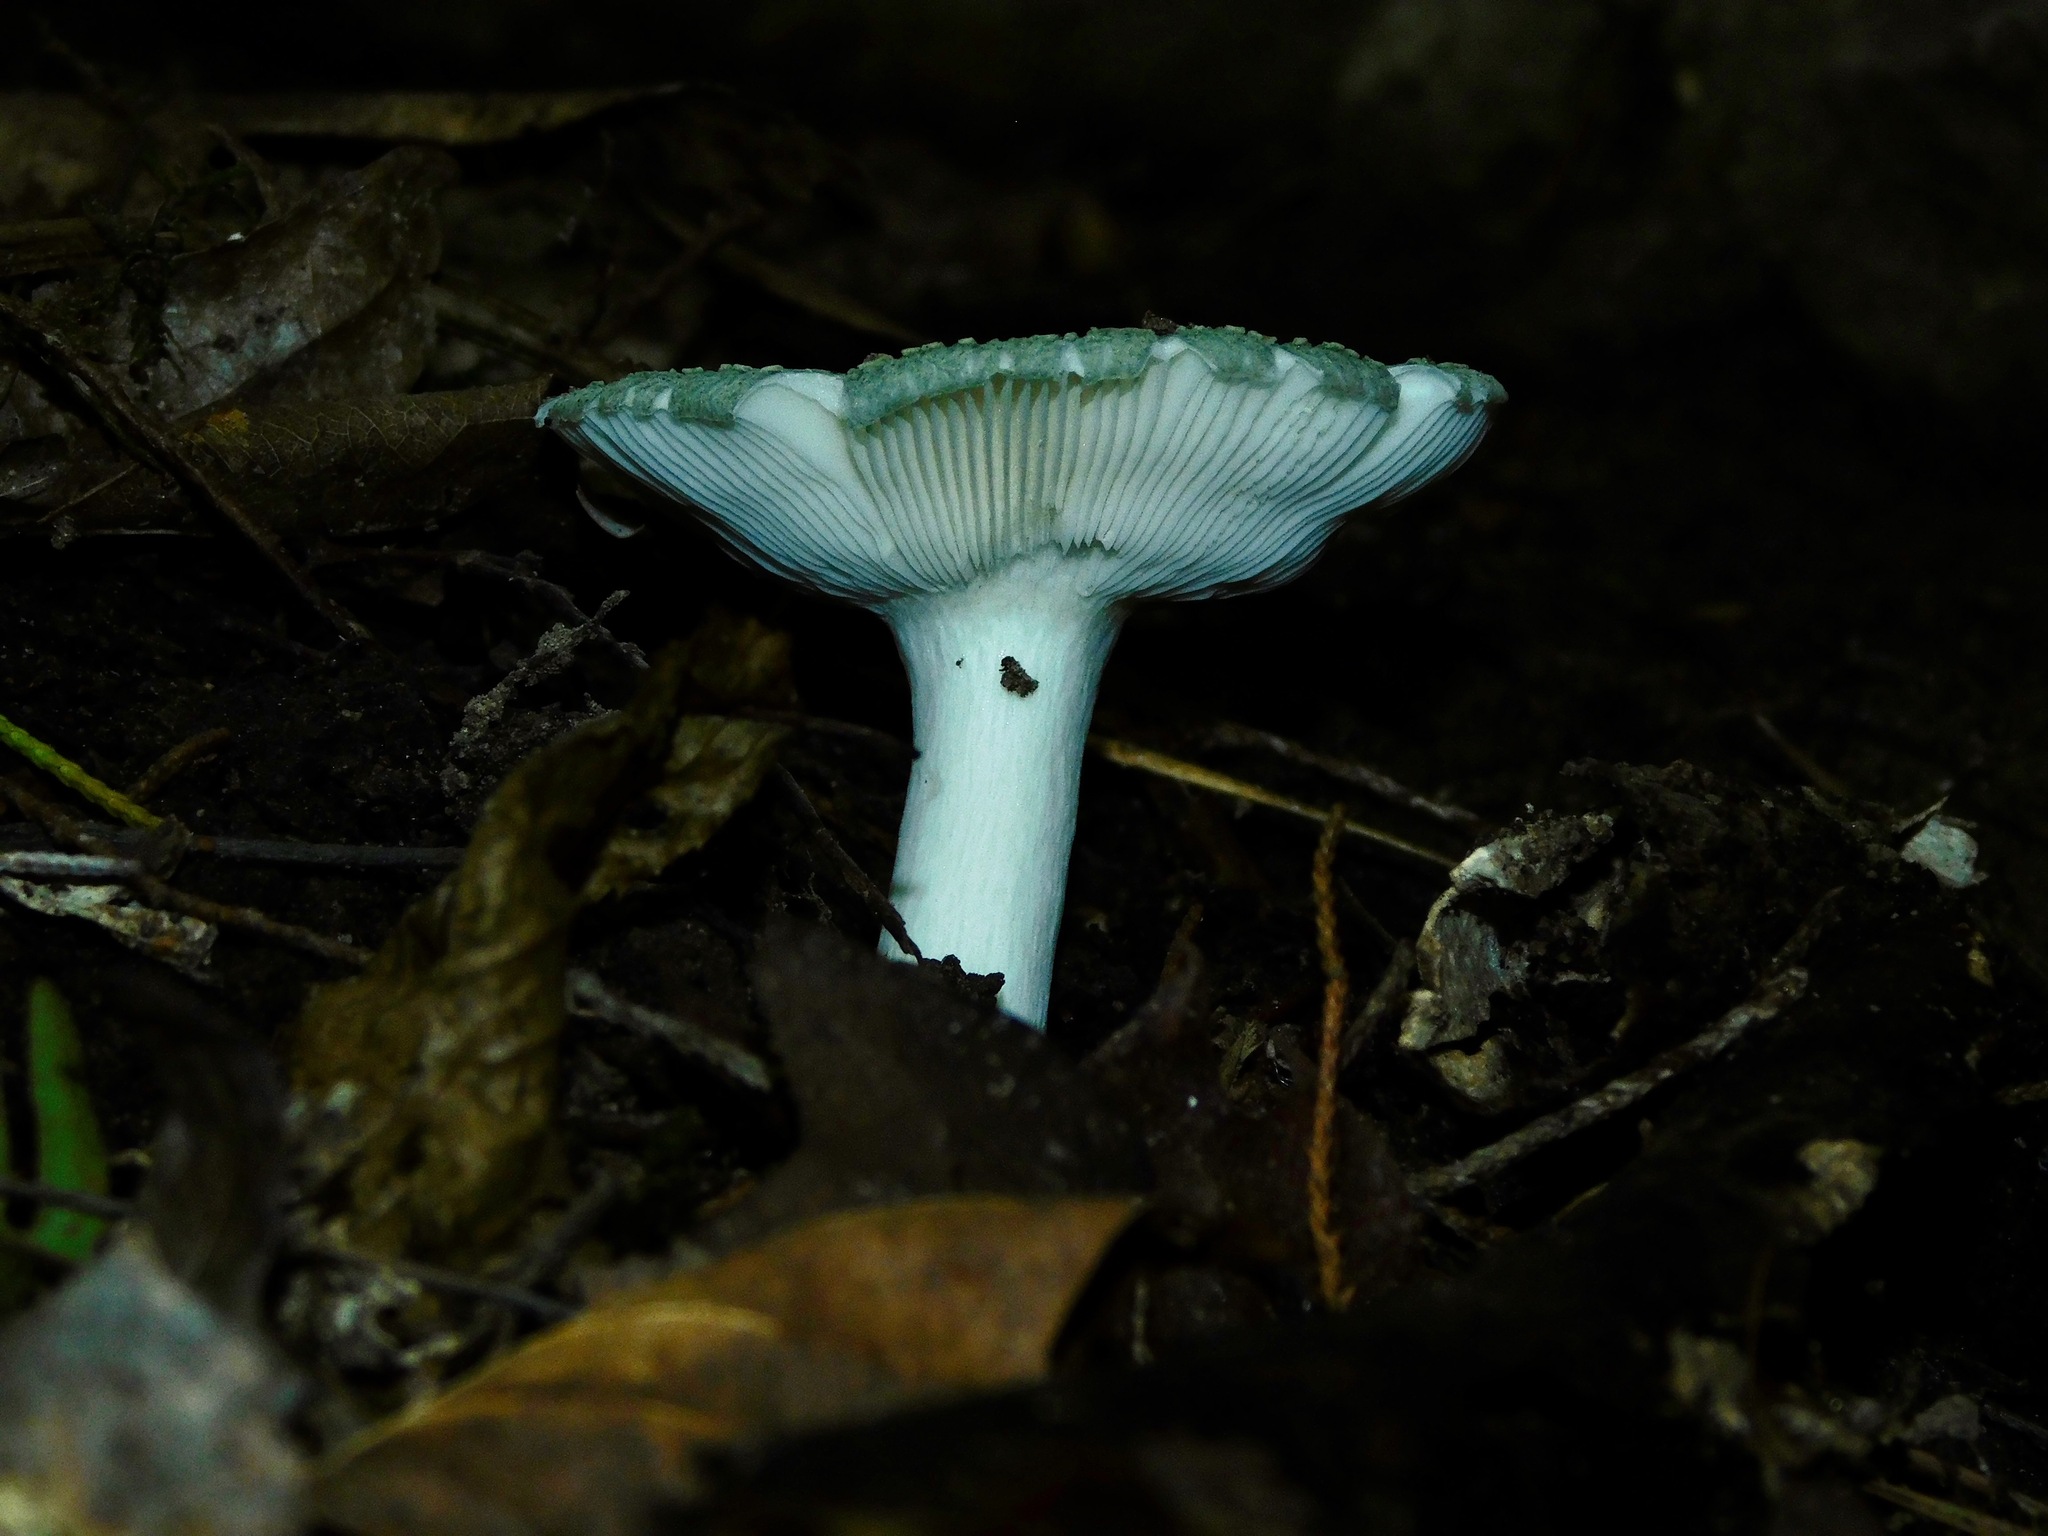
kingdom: Fungi
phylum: Basidiomycota
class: Agaricomycetes
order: Russulales
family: Russulaceae
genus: Russula
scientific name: Russula crustosa
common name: Green quilt russula
